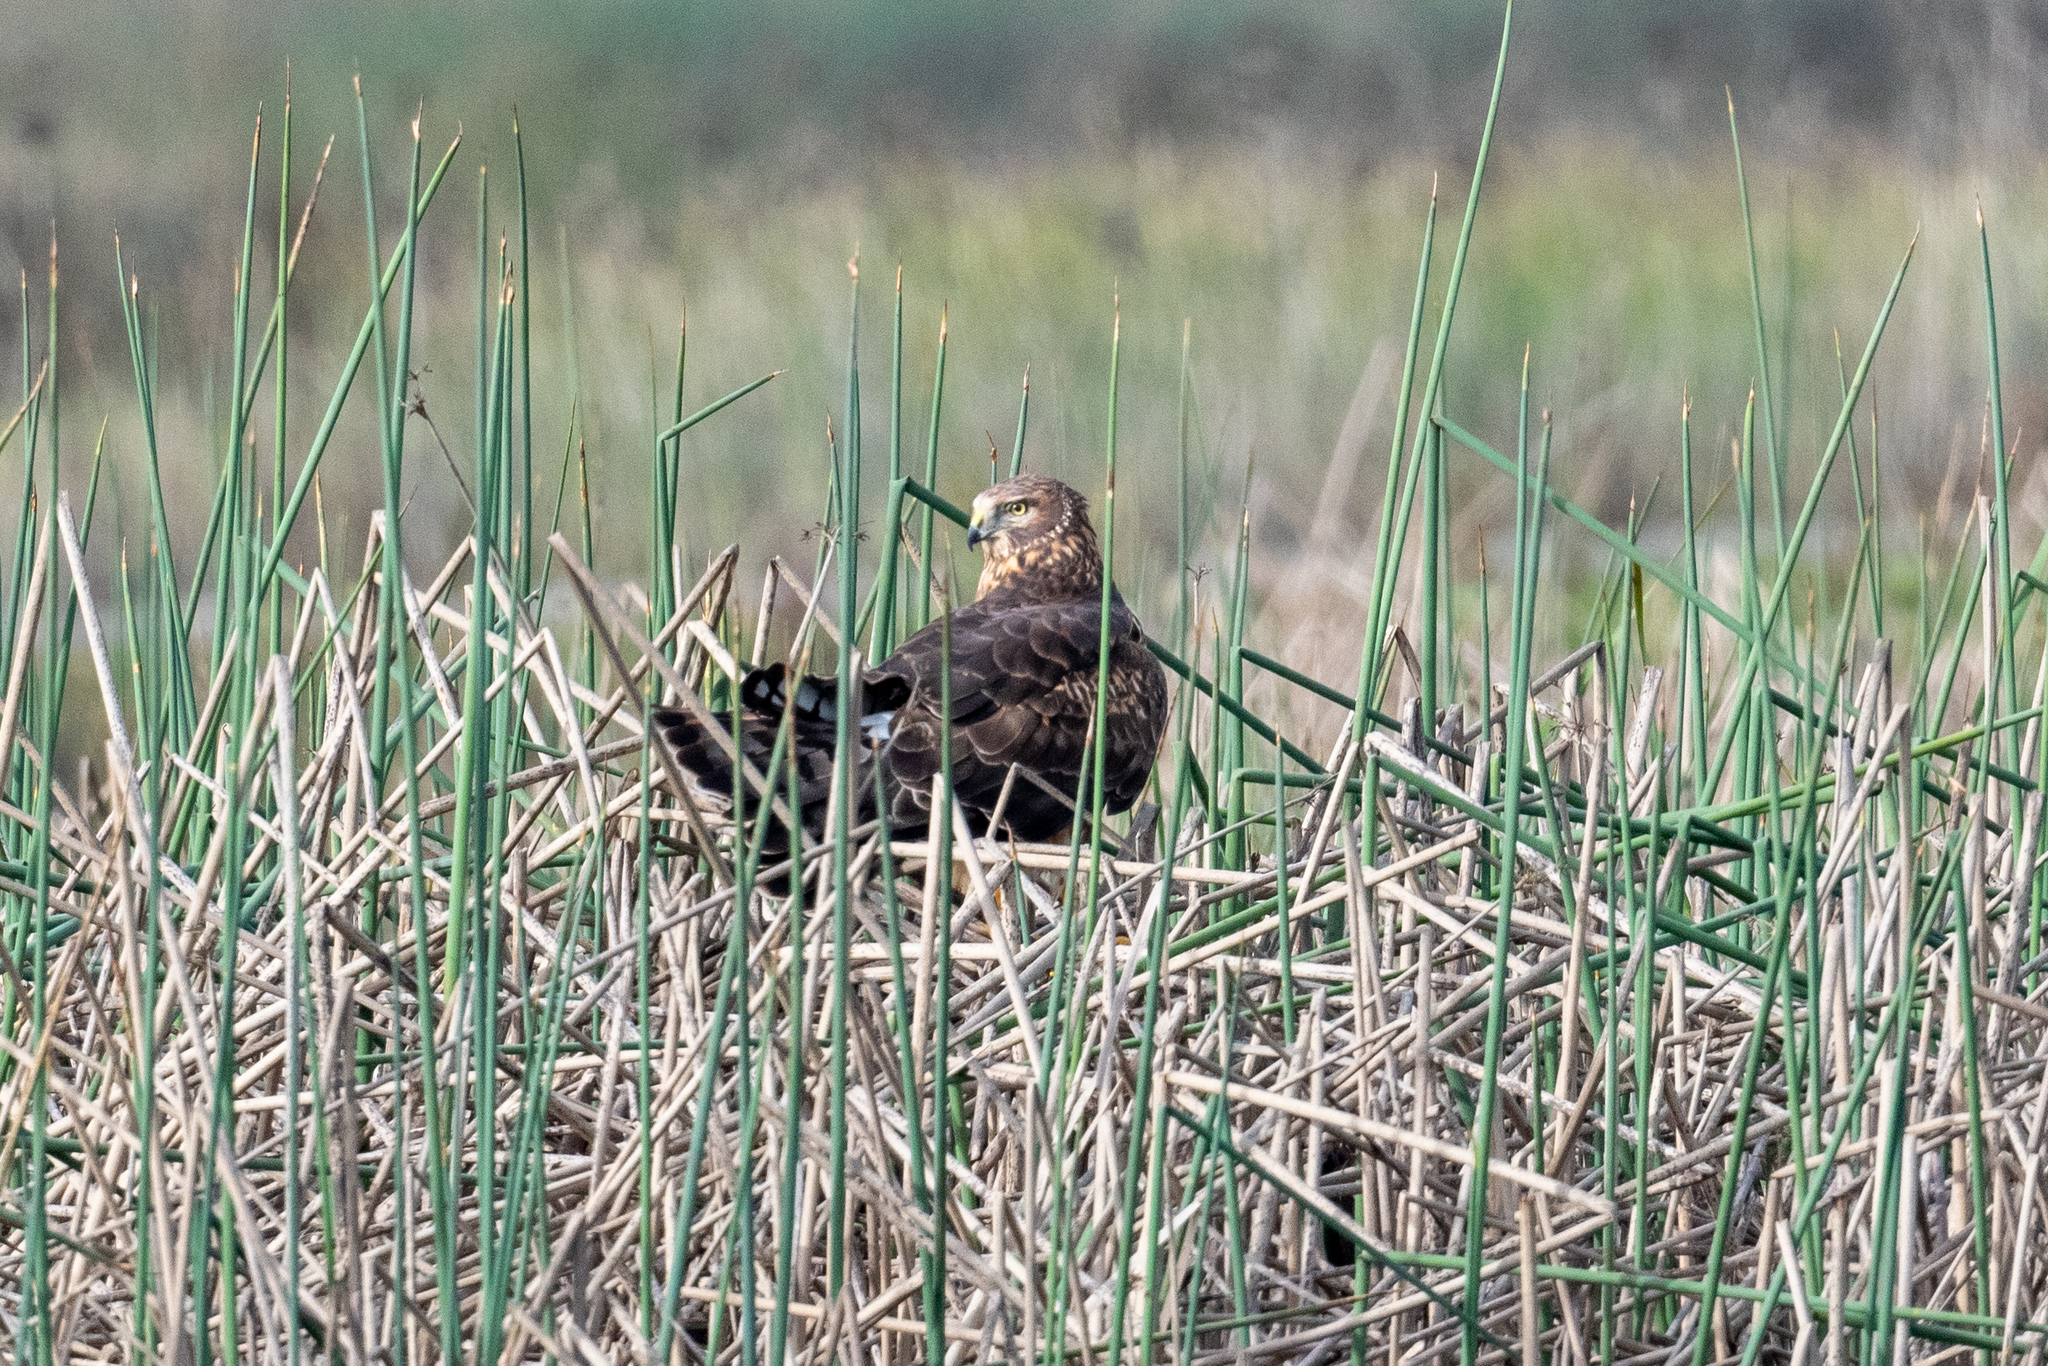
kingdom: Animalia
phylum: Chordata
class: Aves
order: Accipitriformes
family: Accipitridae
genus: Circus
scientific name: Circus cyaneus
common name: Hen harrier
